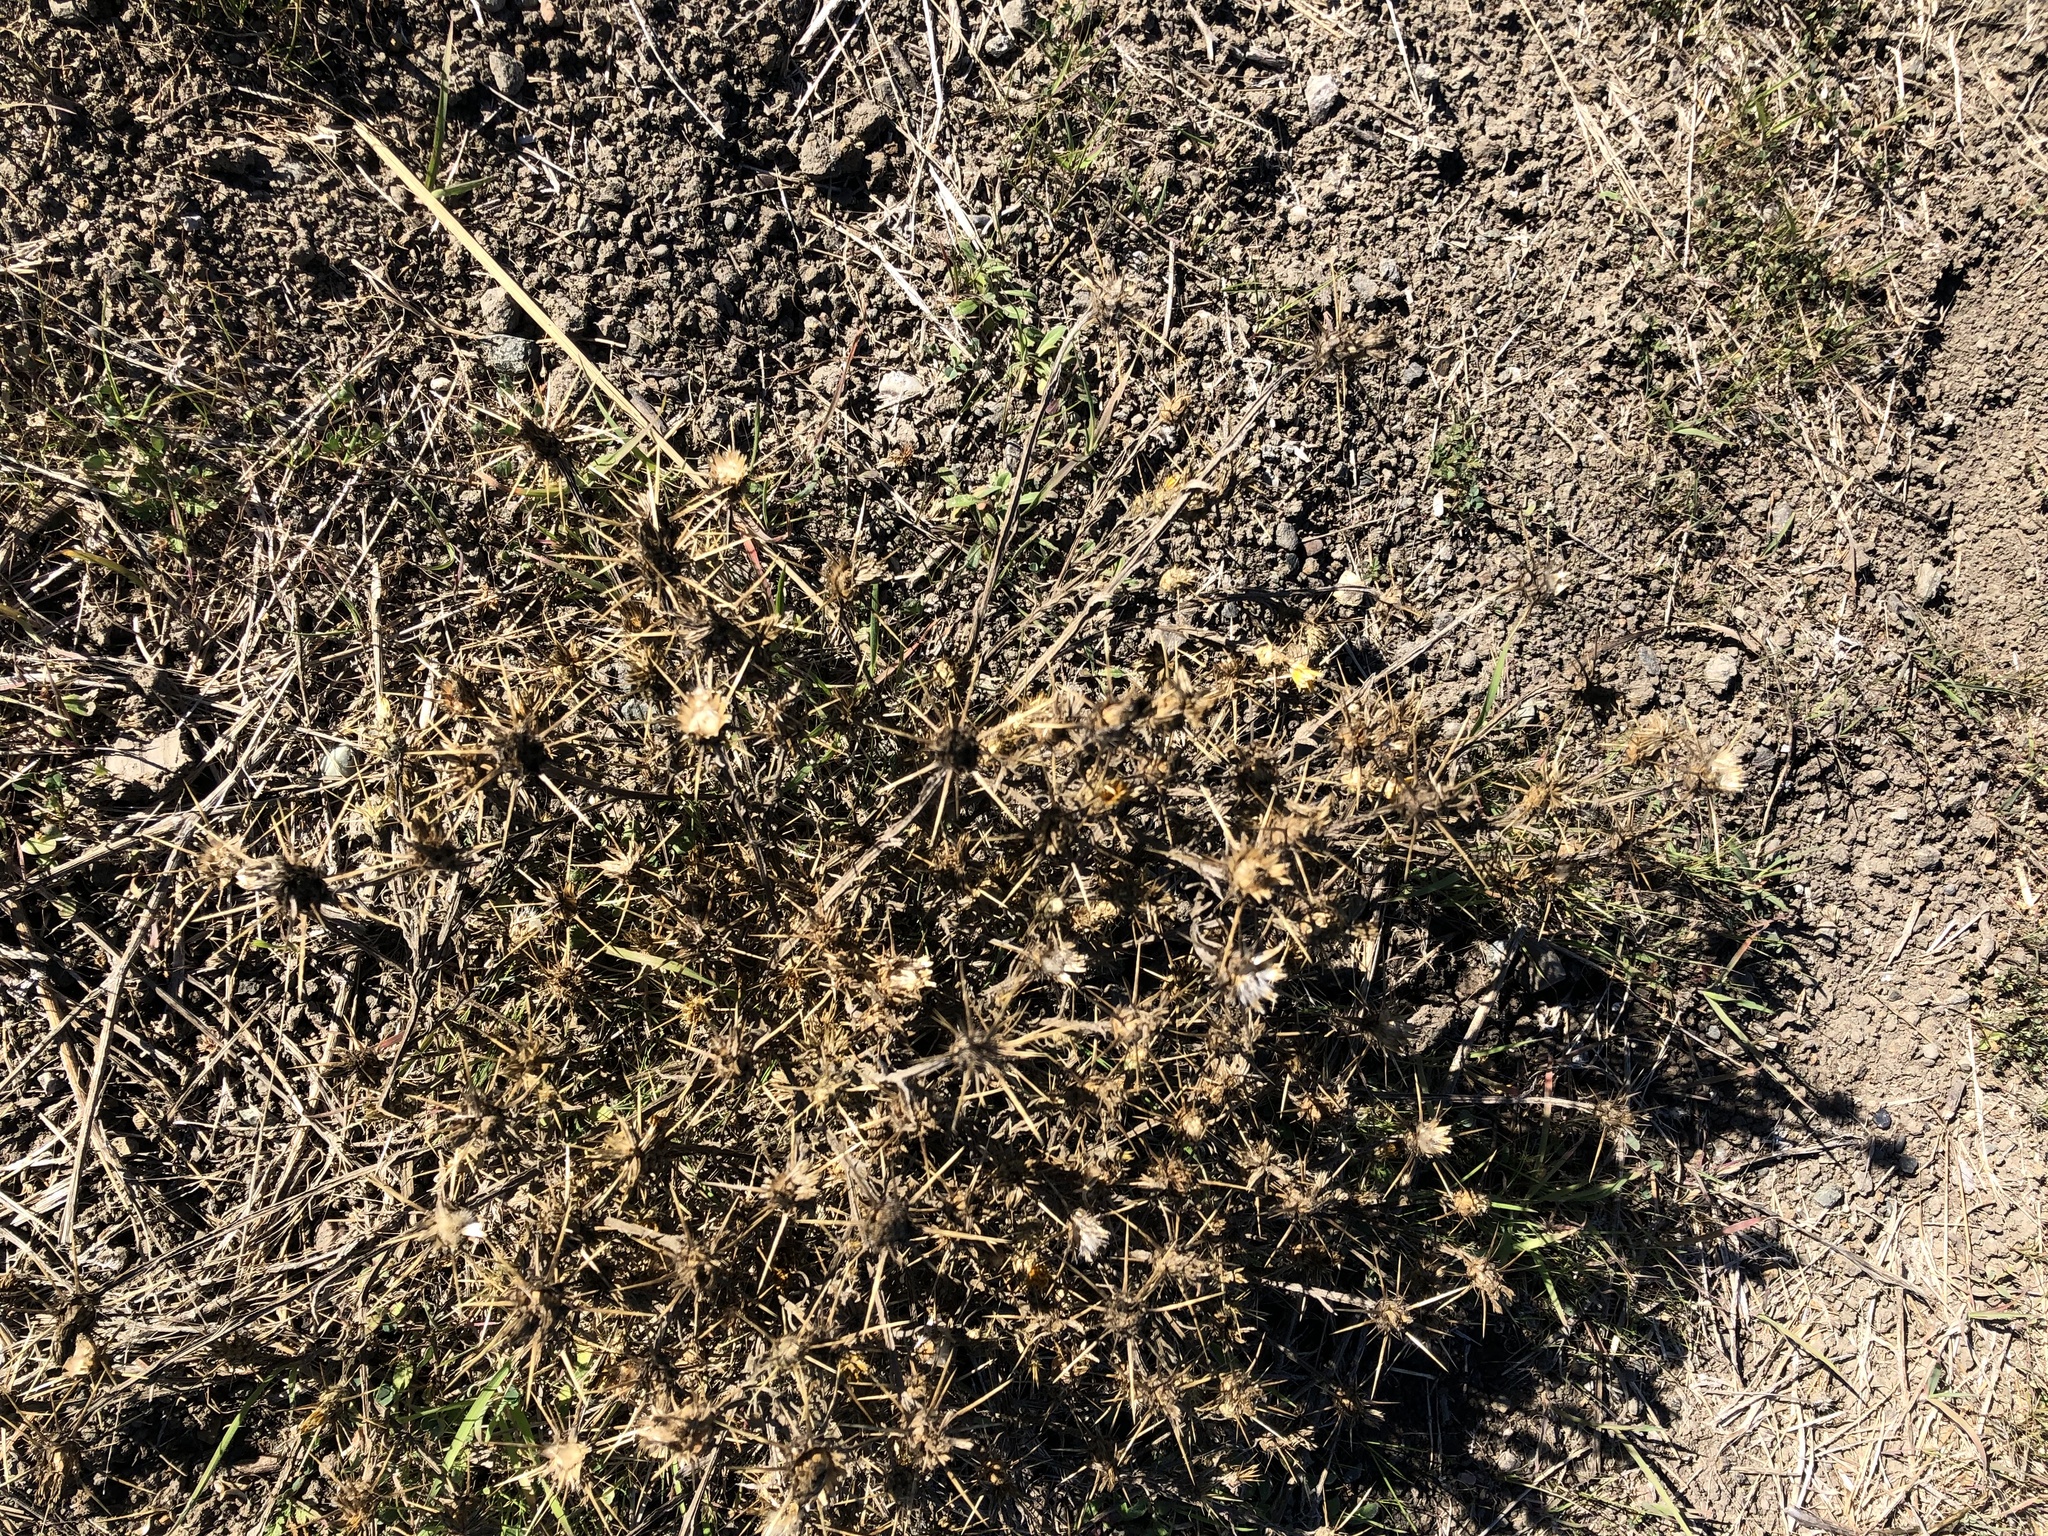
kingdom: Plantae
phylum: Tracheophyta
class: Magnoliopsida
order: Asterales
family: Asteraceae
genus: Centaurea
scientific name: Centaurea solstitialis
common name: Yellow star-thistle
